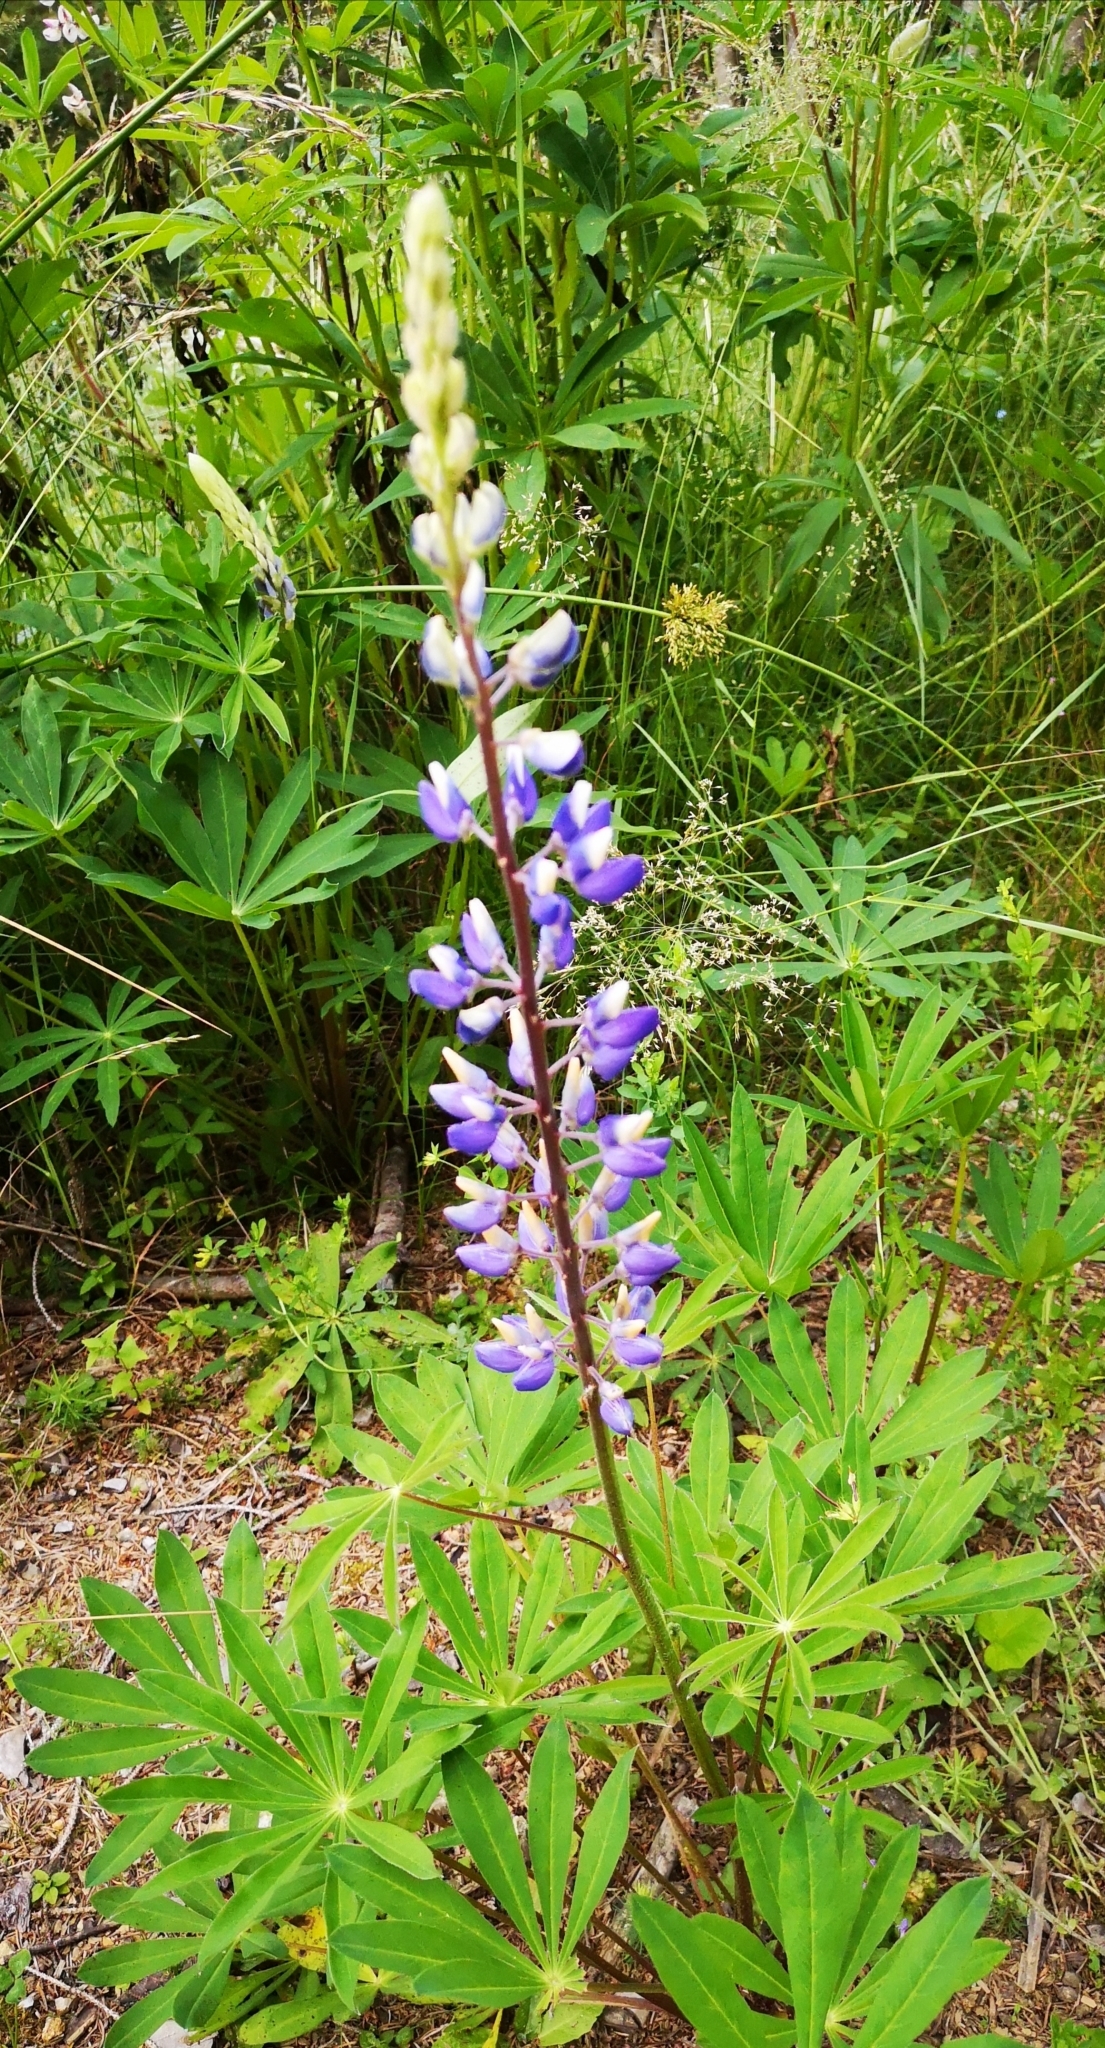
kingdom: Plantae
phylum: Tracheophyta
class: Magnoliopsida
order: Fabales
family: Fabaceae
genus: Lupinus
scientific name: Lupinus polyphyllus
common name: Garden lupin
